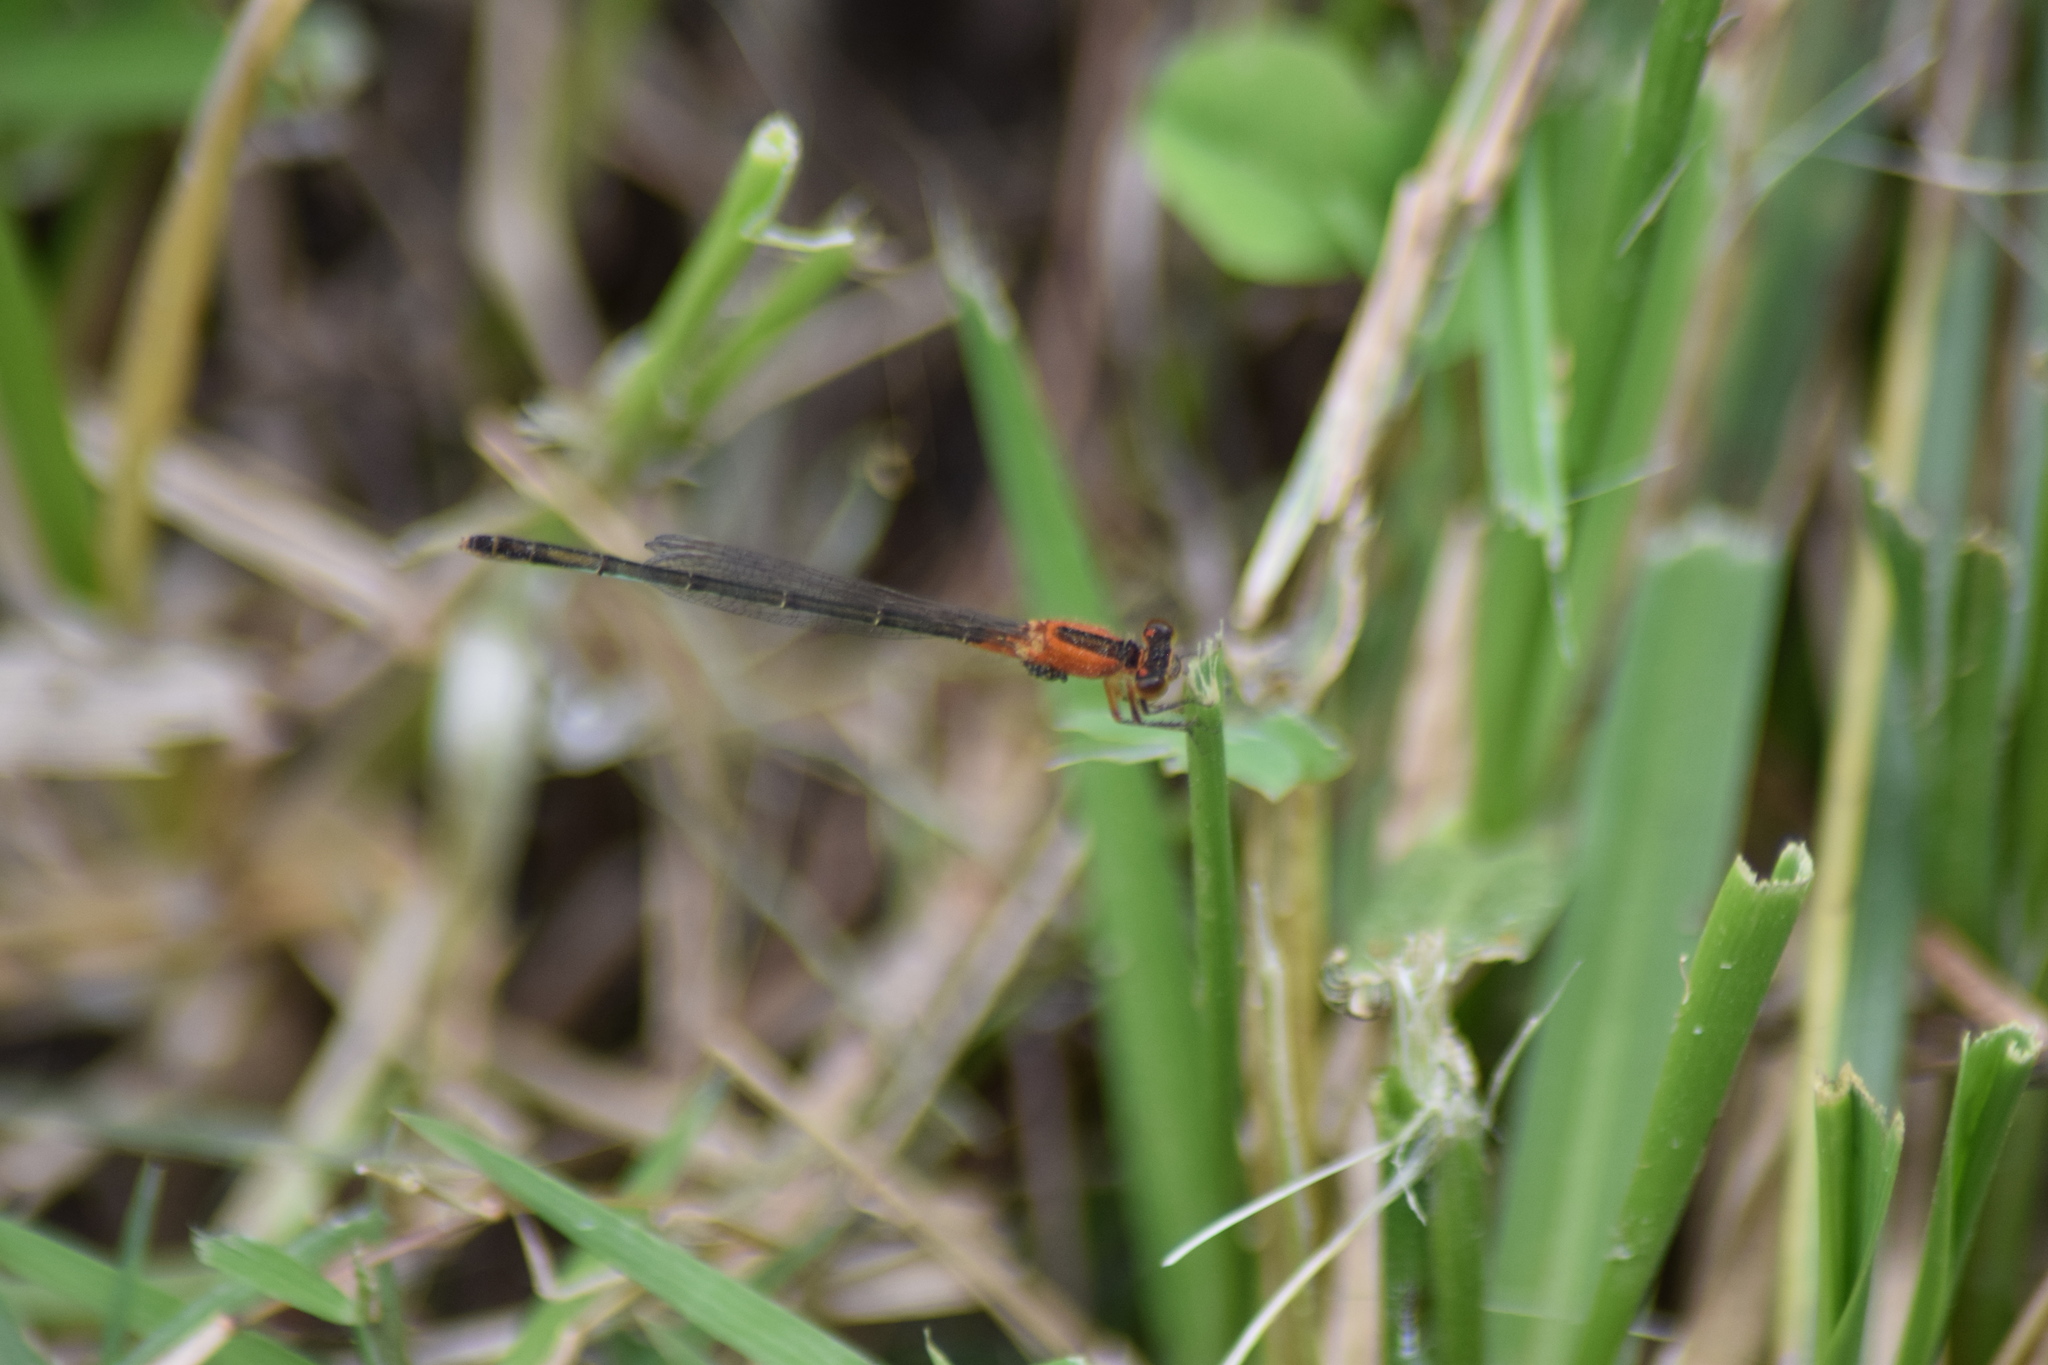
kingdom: Animalia
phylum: Arthropoda
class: Insecta
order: Odonata
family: Coenagrionidae
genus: Ischnura
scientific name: Ischnura ramburii
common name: Rambur's forktail
